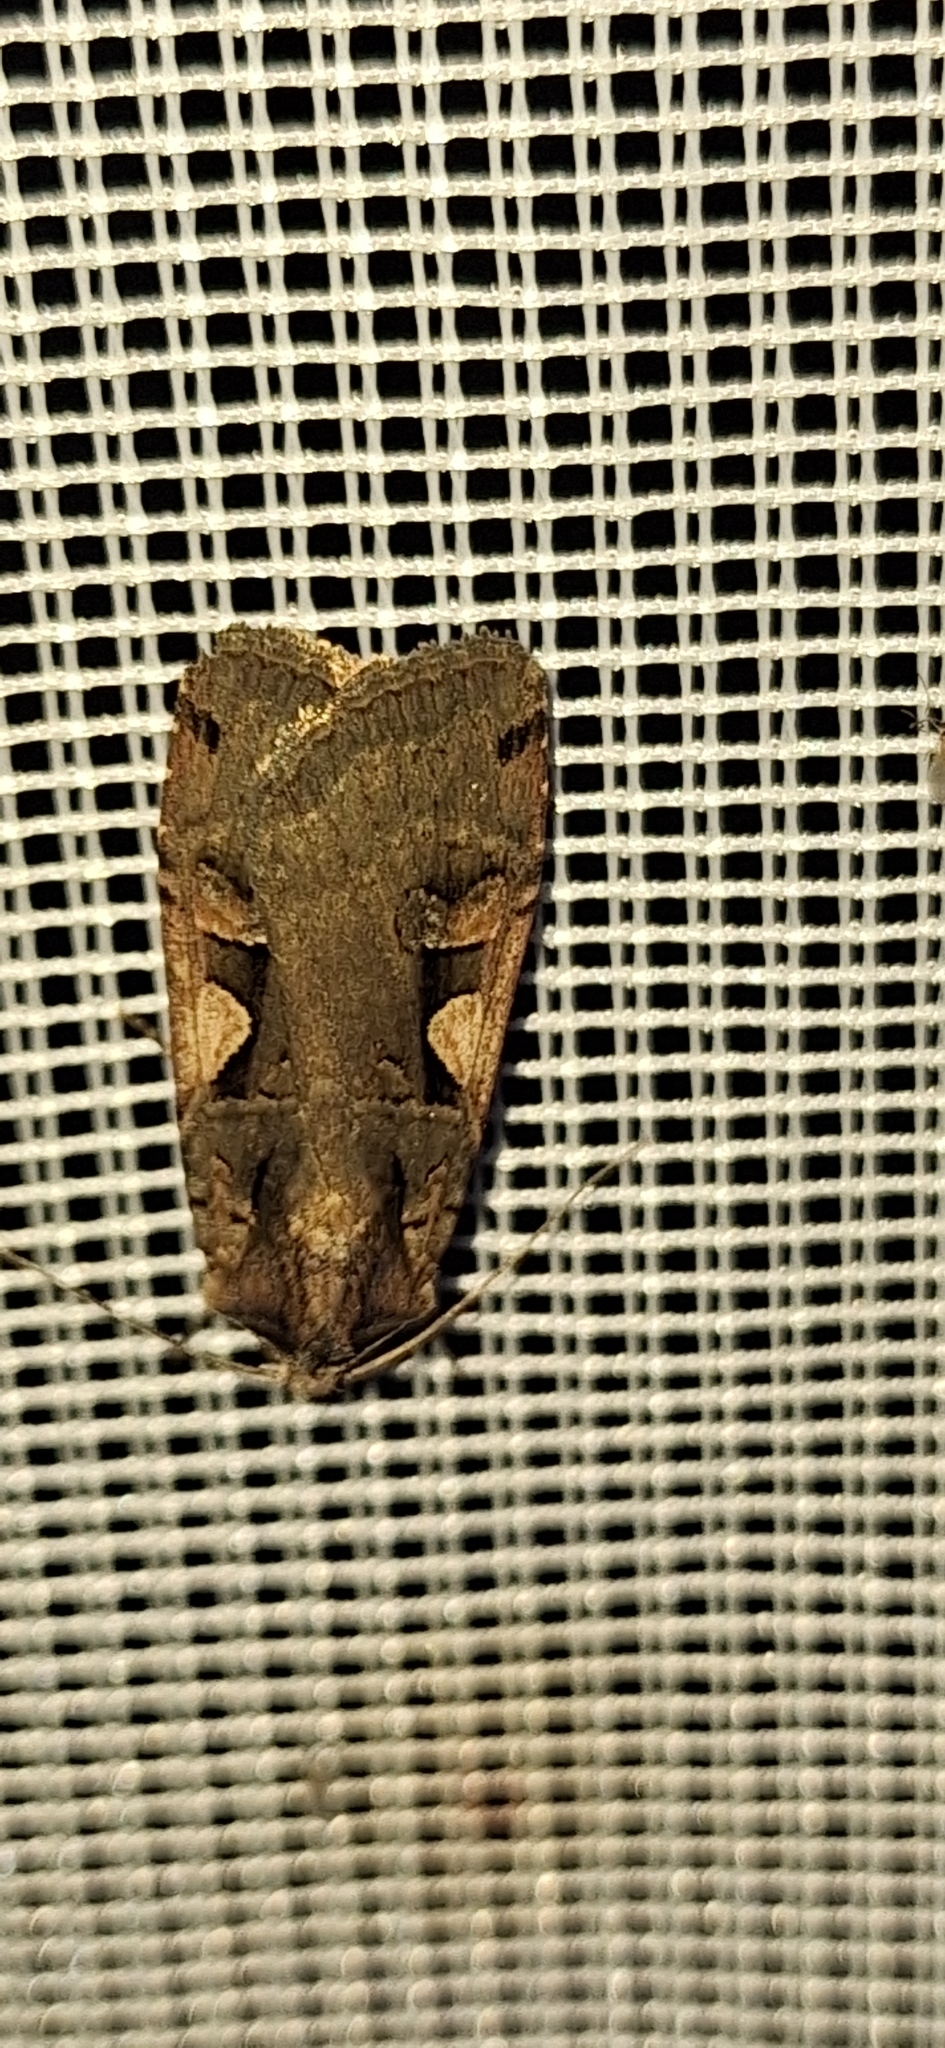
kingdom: Animalia
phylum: Arthropoda
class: Insecta
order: Lepidoptera
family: Noctuidae
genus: Xestia
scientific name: Xestia c-nigrum
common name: Setaceous hebrew character
